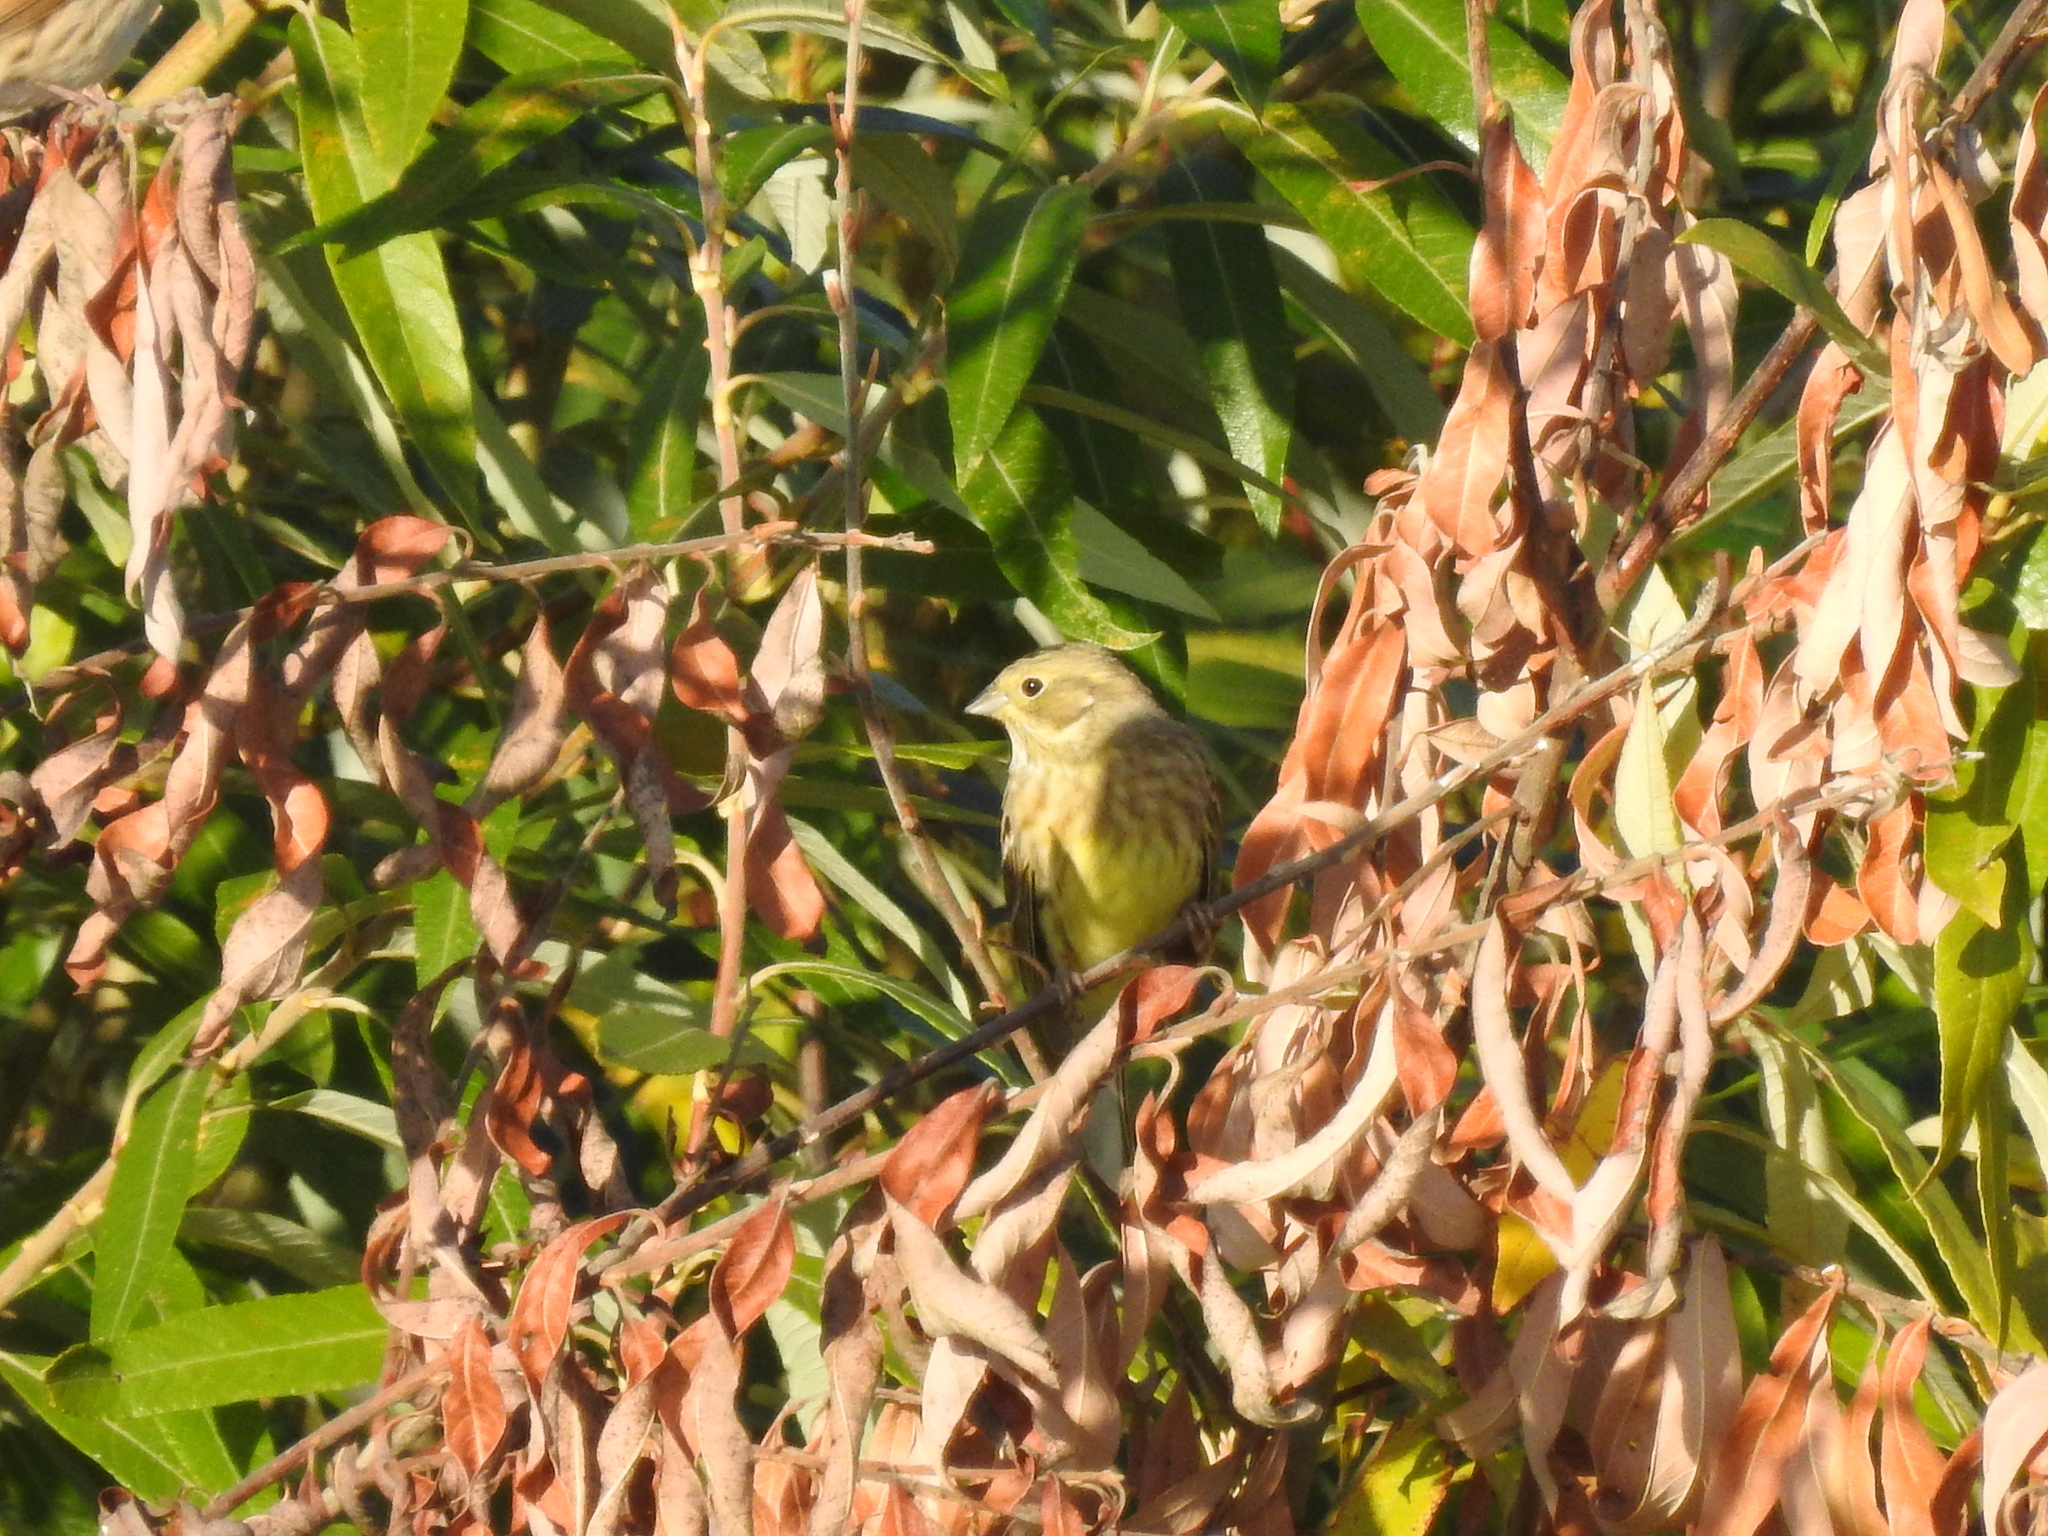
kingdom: Animalia
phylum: Chordata
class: Aves
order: Passeriformes
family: Emberizidae
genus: Emberiza
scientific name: Emberiza citrinella
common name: Yellowhammer
